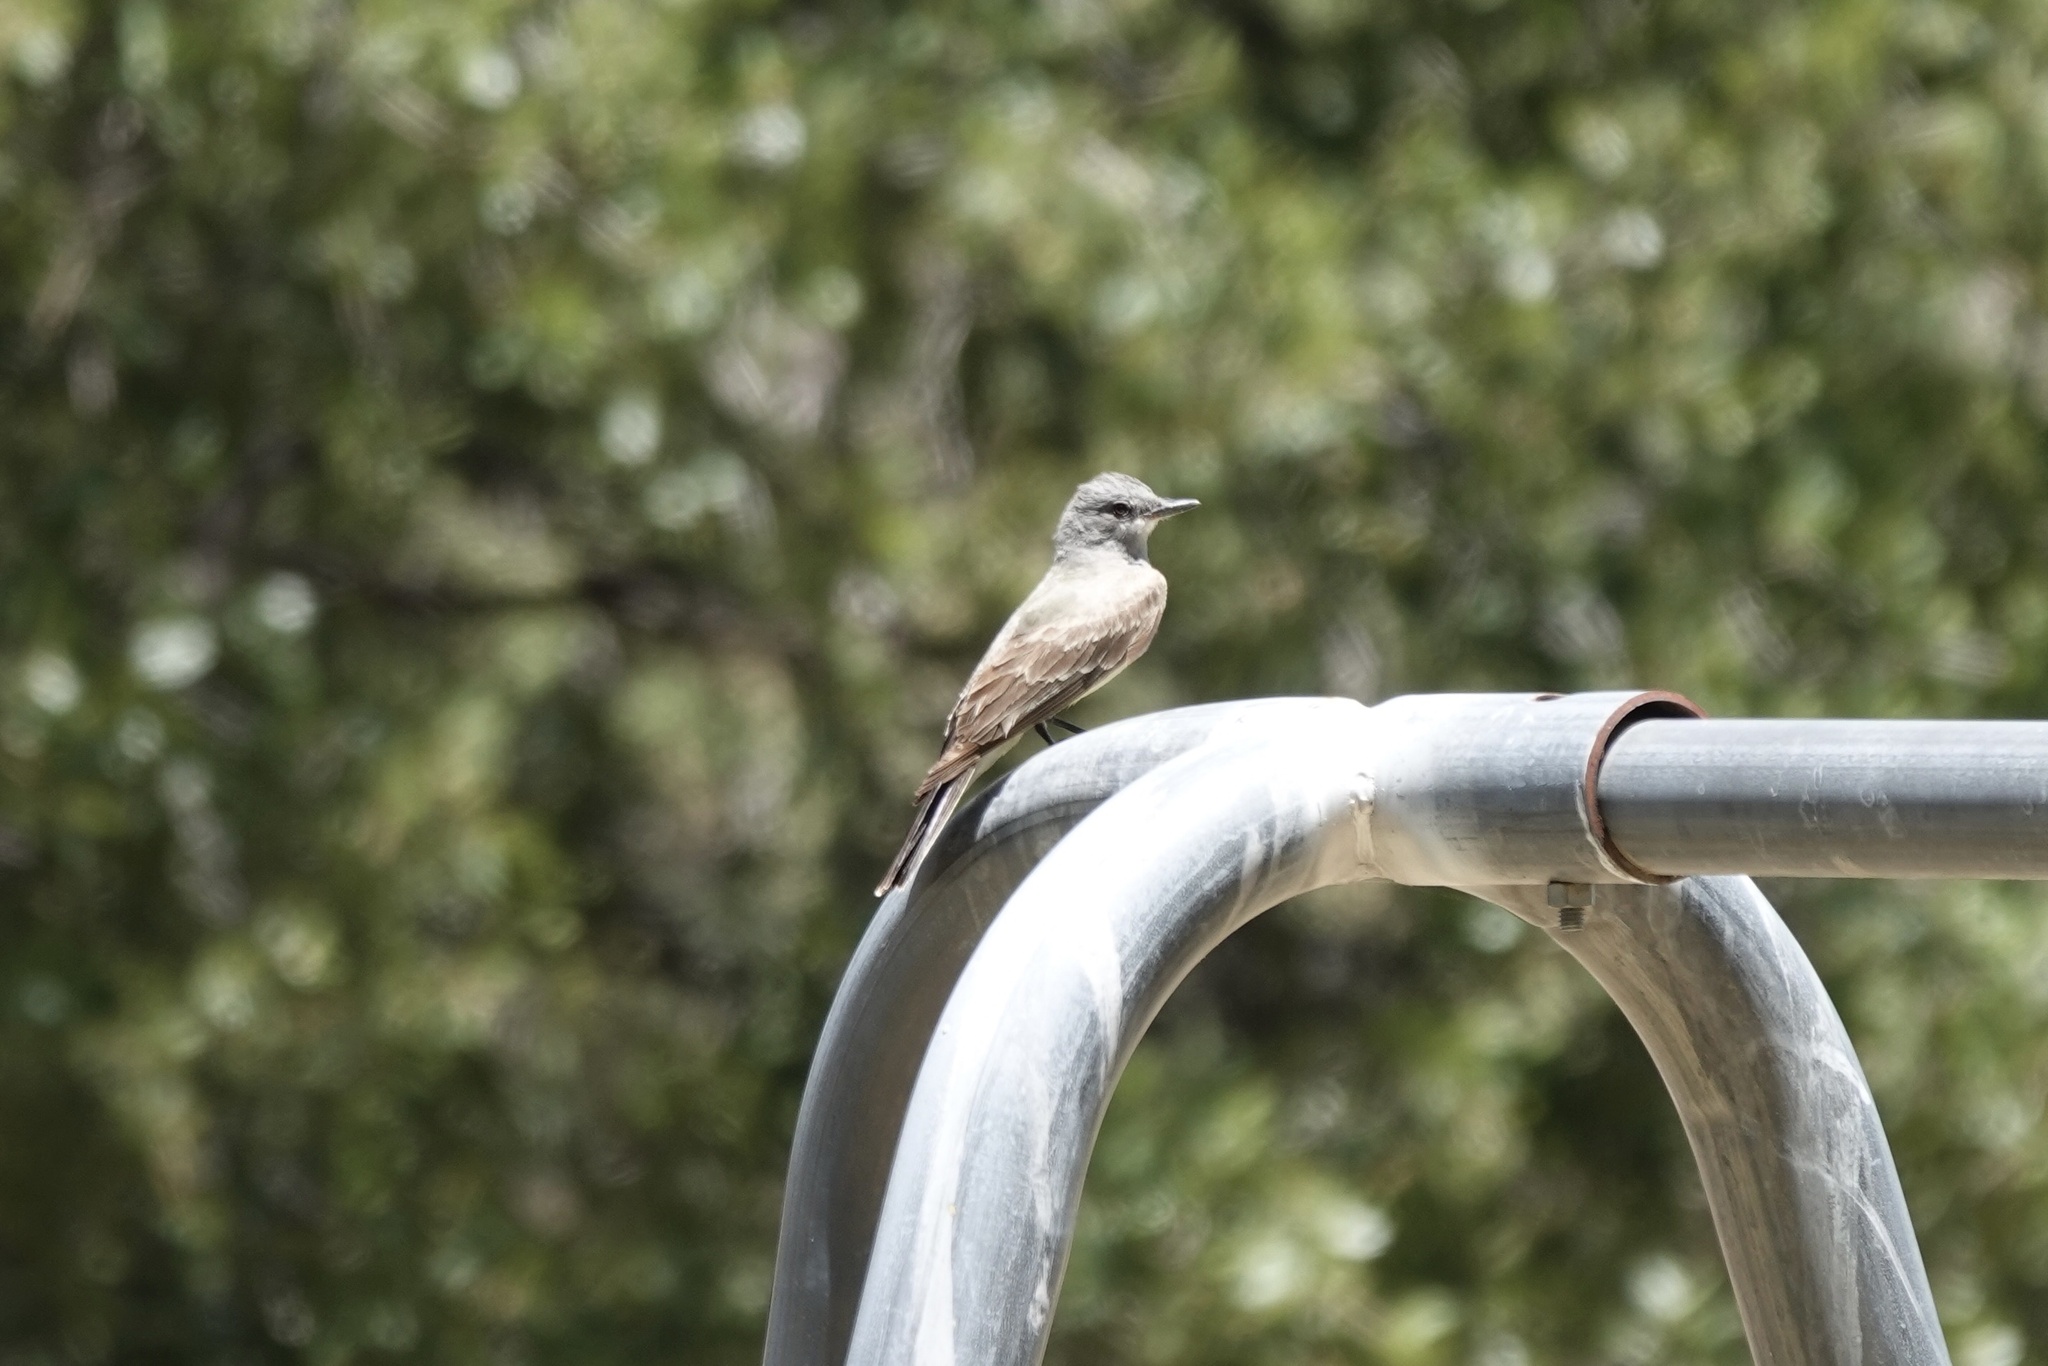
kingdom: Animalia
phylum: Chordata
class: Aves
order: Passeriformes
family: Tyrannidae
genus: Tyrannus
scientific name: Tyrannus vociferans
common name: Cassin's kingbird
